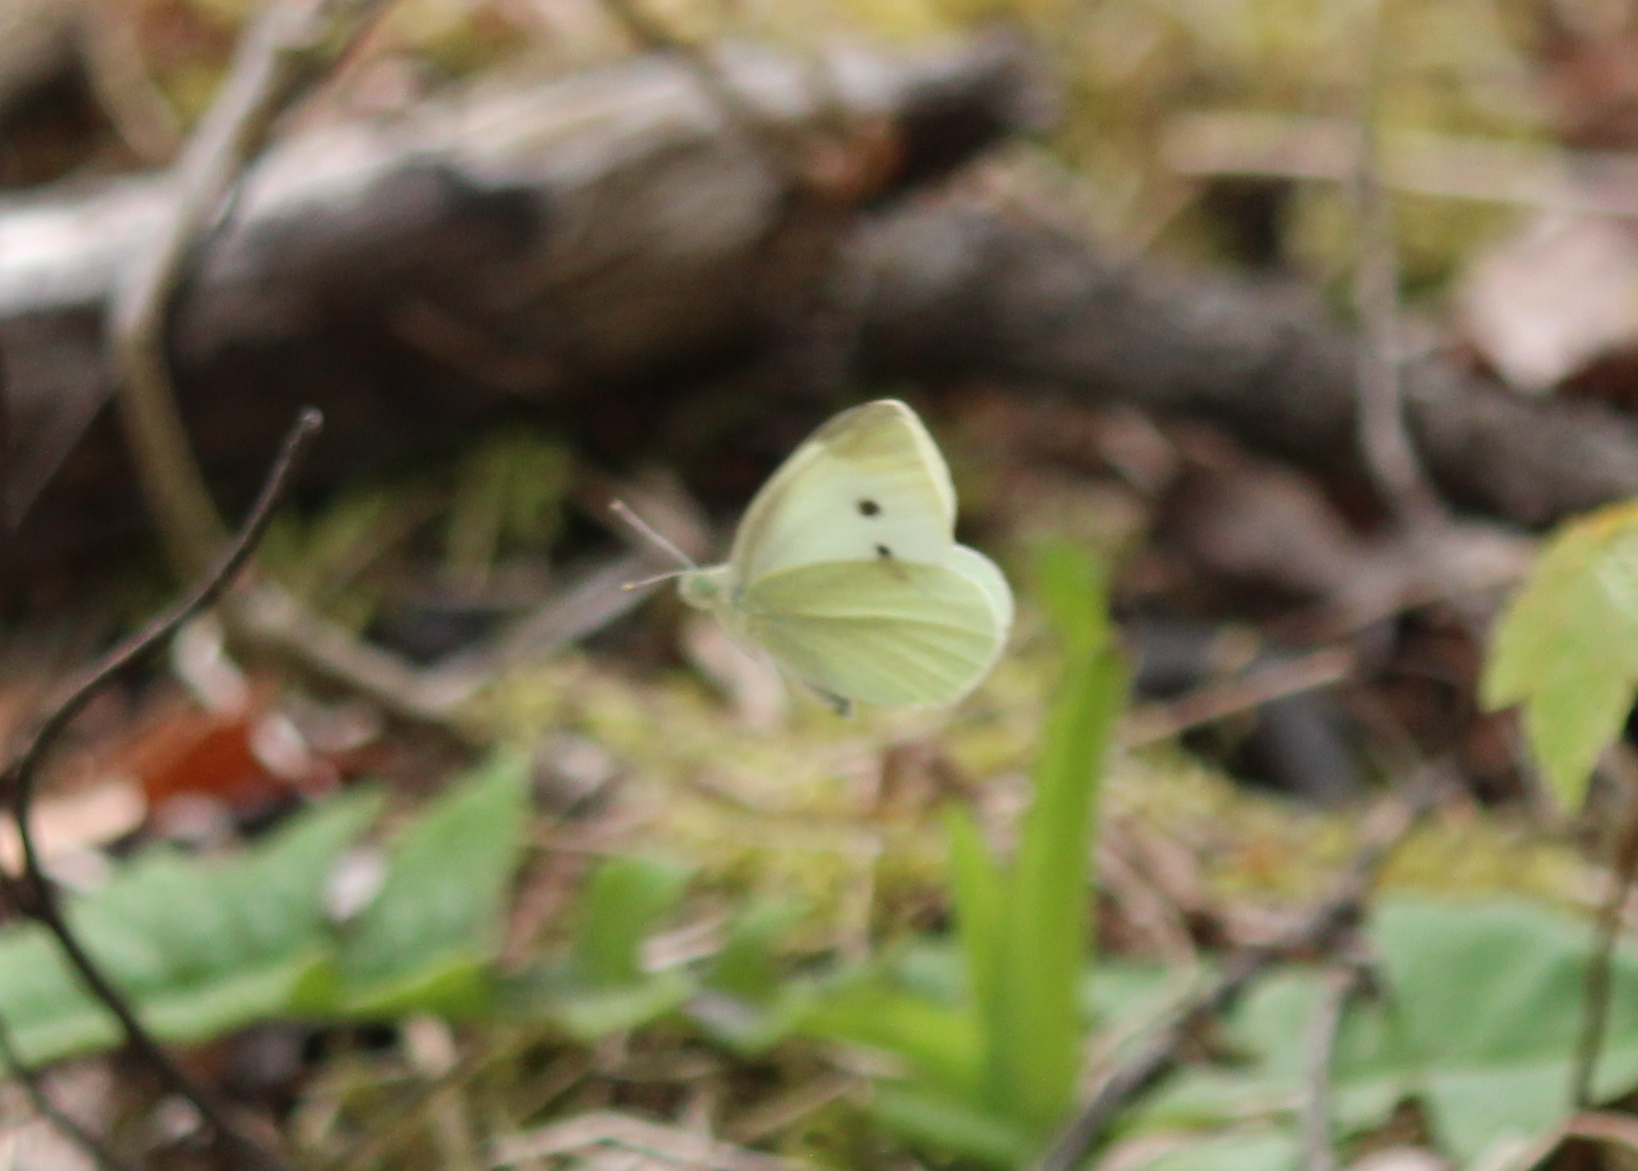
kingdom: Animalia
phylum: Arthropoda
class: Insecta
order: Lepidoptera
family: Pieridae
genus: Pieris
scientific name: Pieris rapae
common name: Small white
